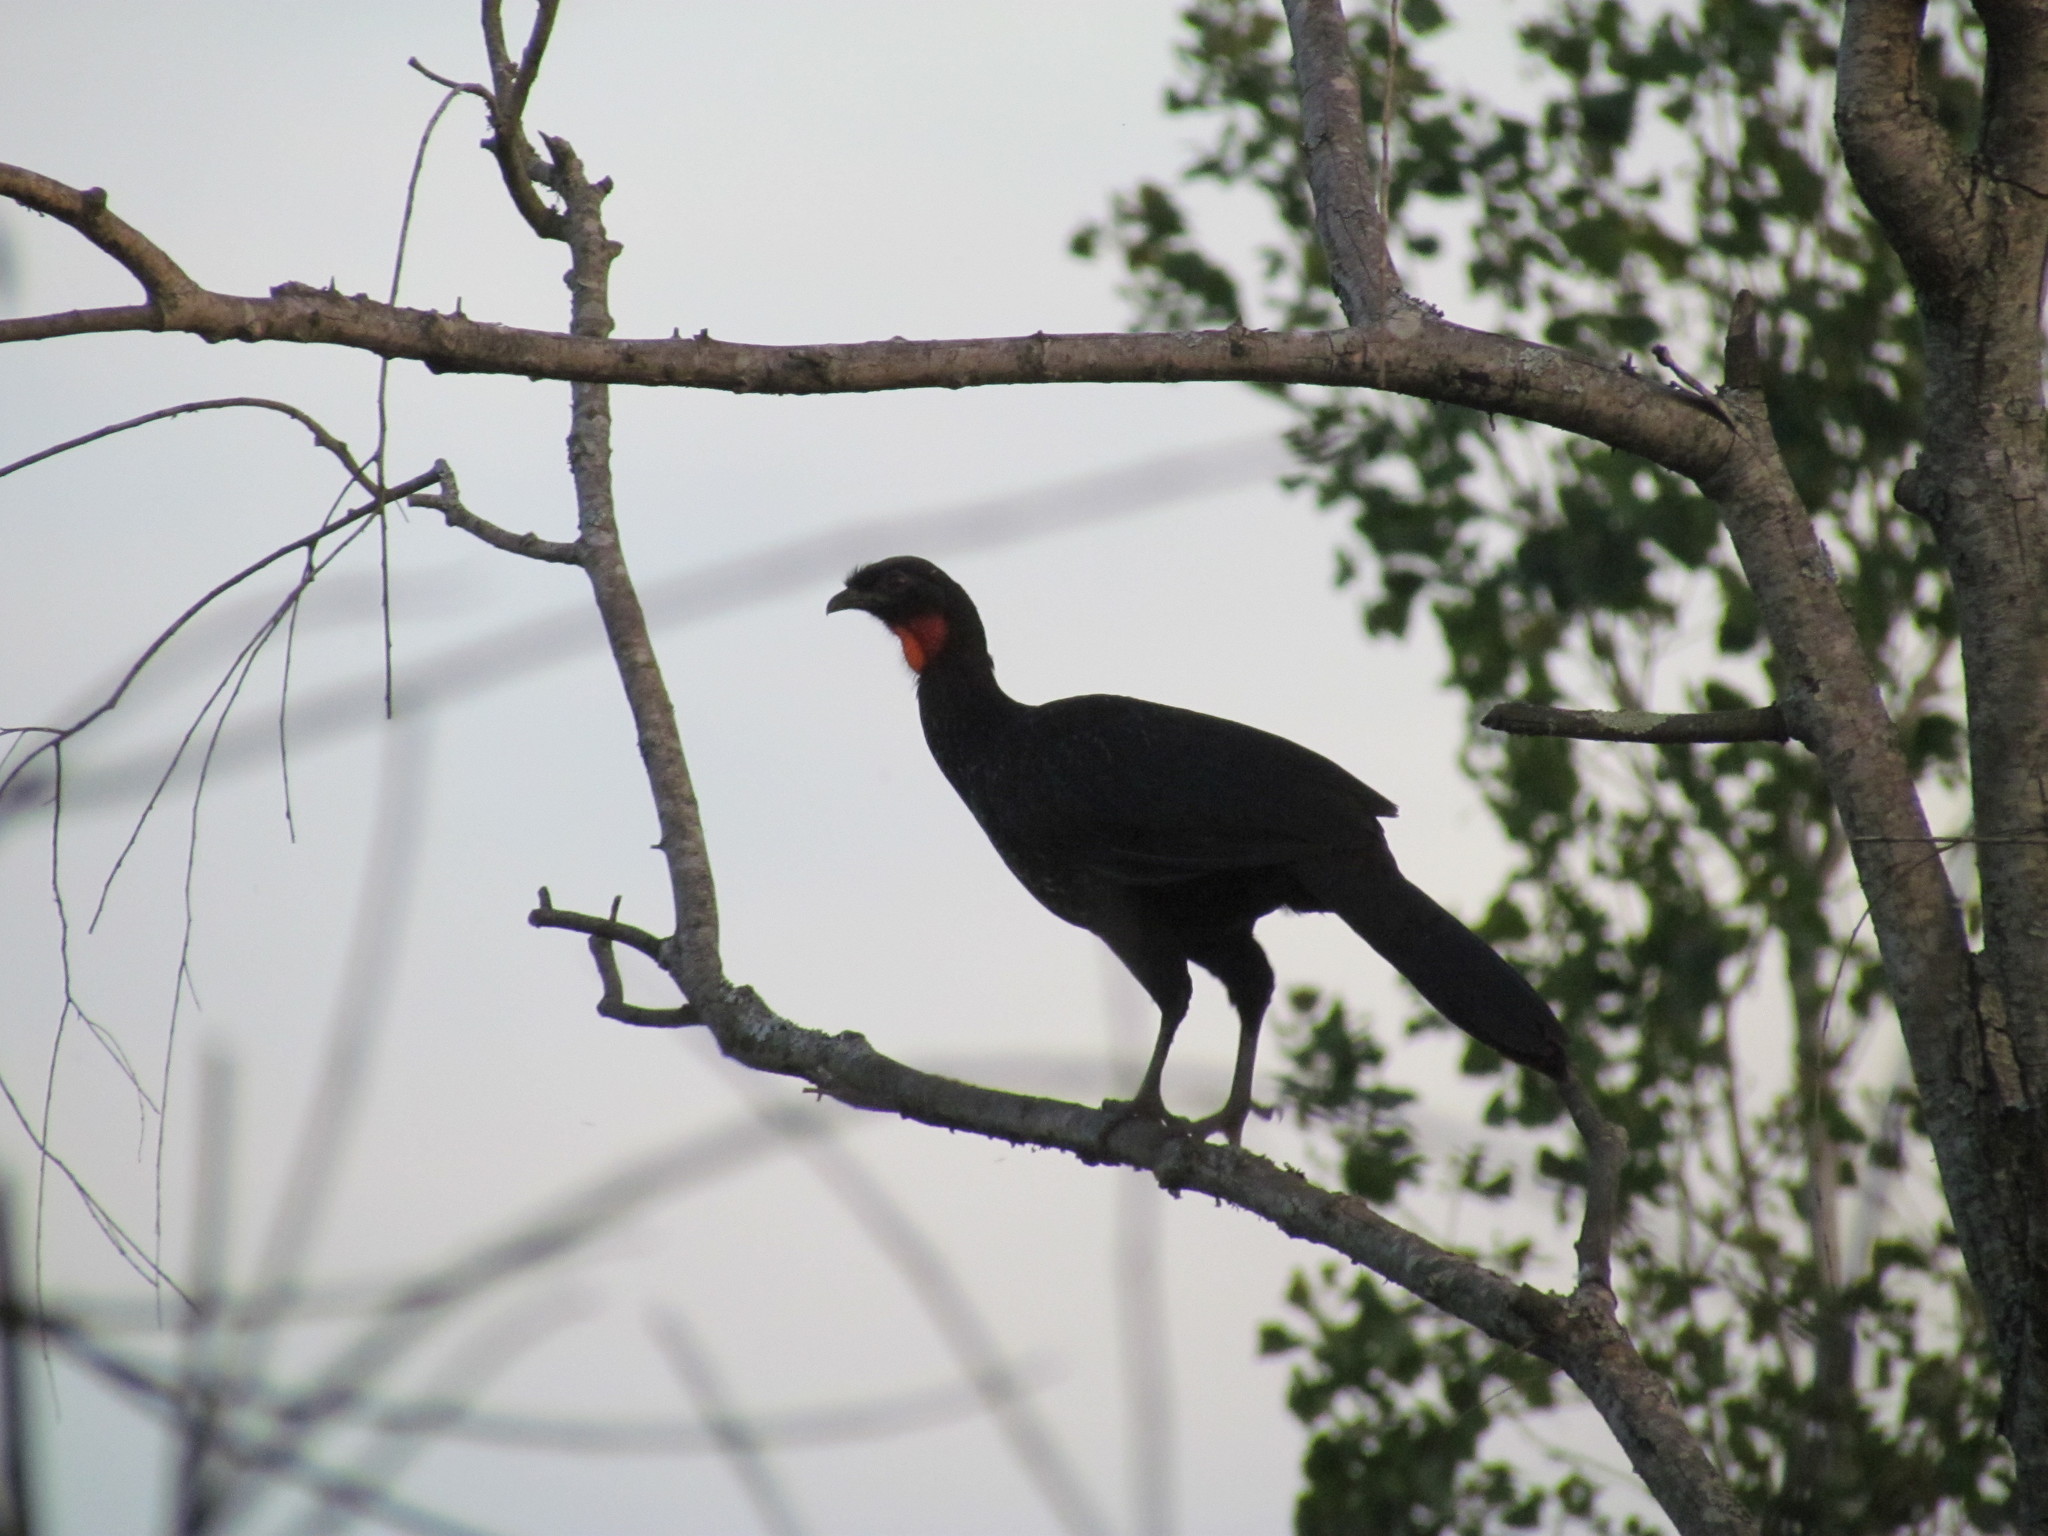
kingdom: Animalia
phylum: Chordata
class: Aves
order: Galliformes
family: Cracidae
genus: Penelope
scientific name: Penelope obscura
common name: Dusky-legged guan
